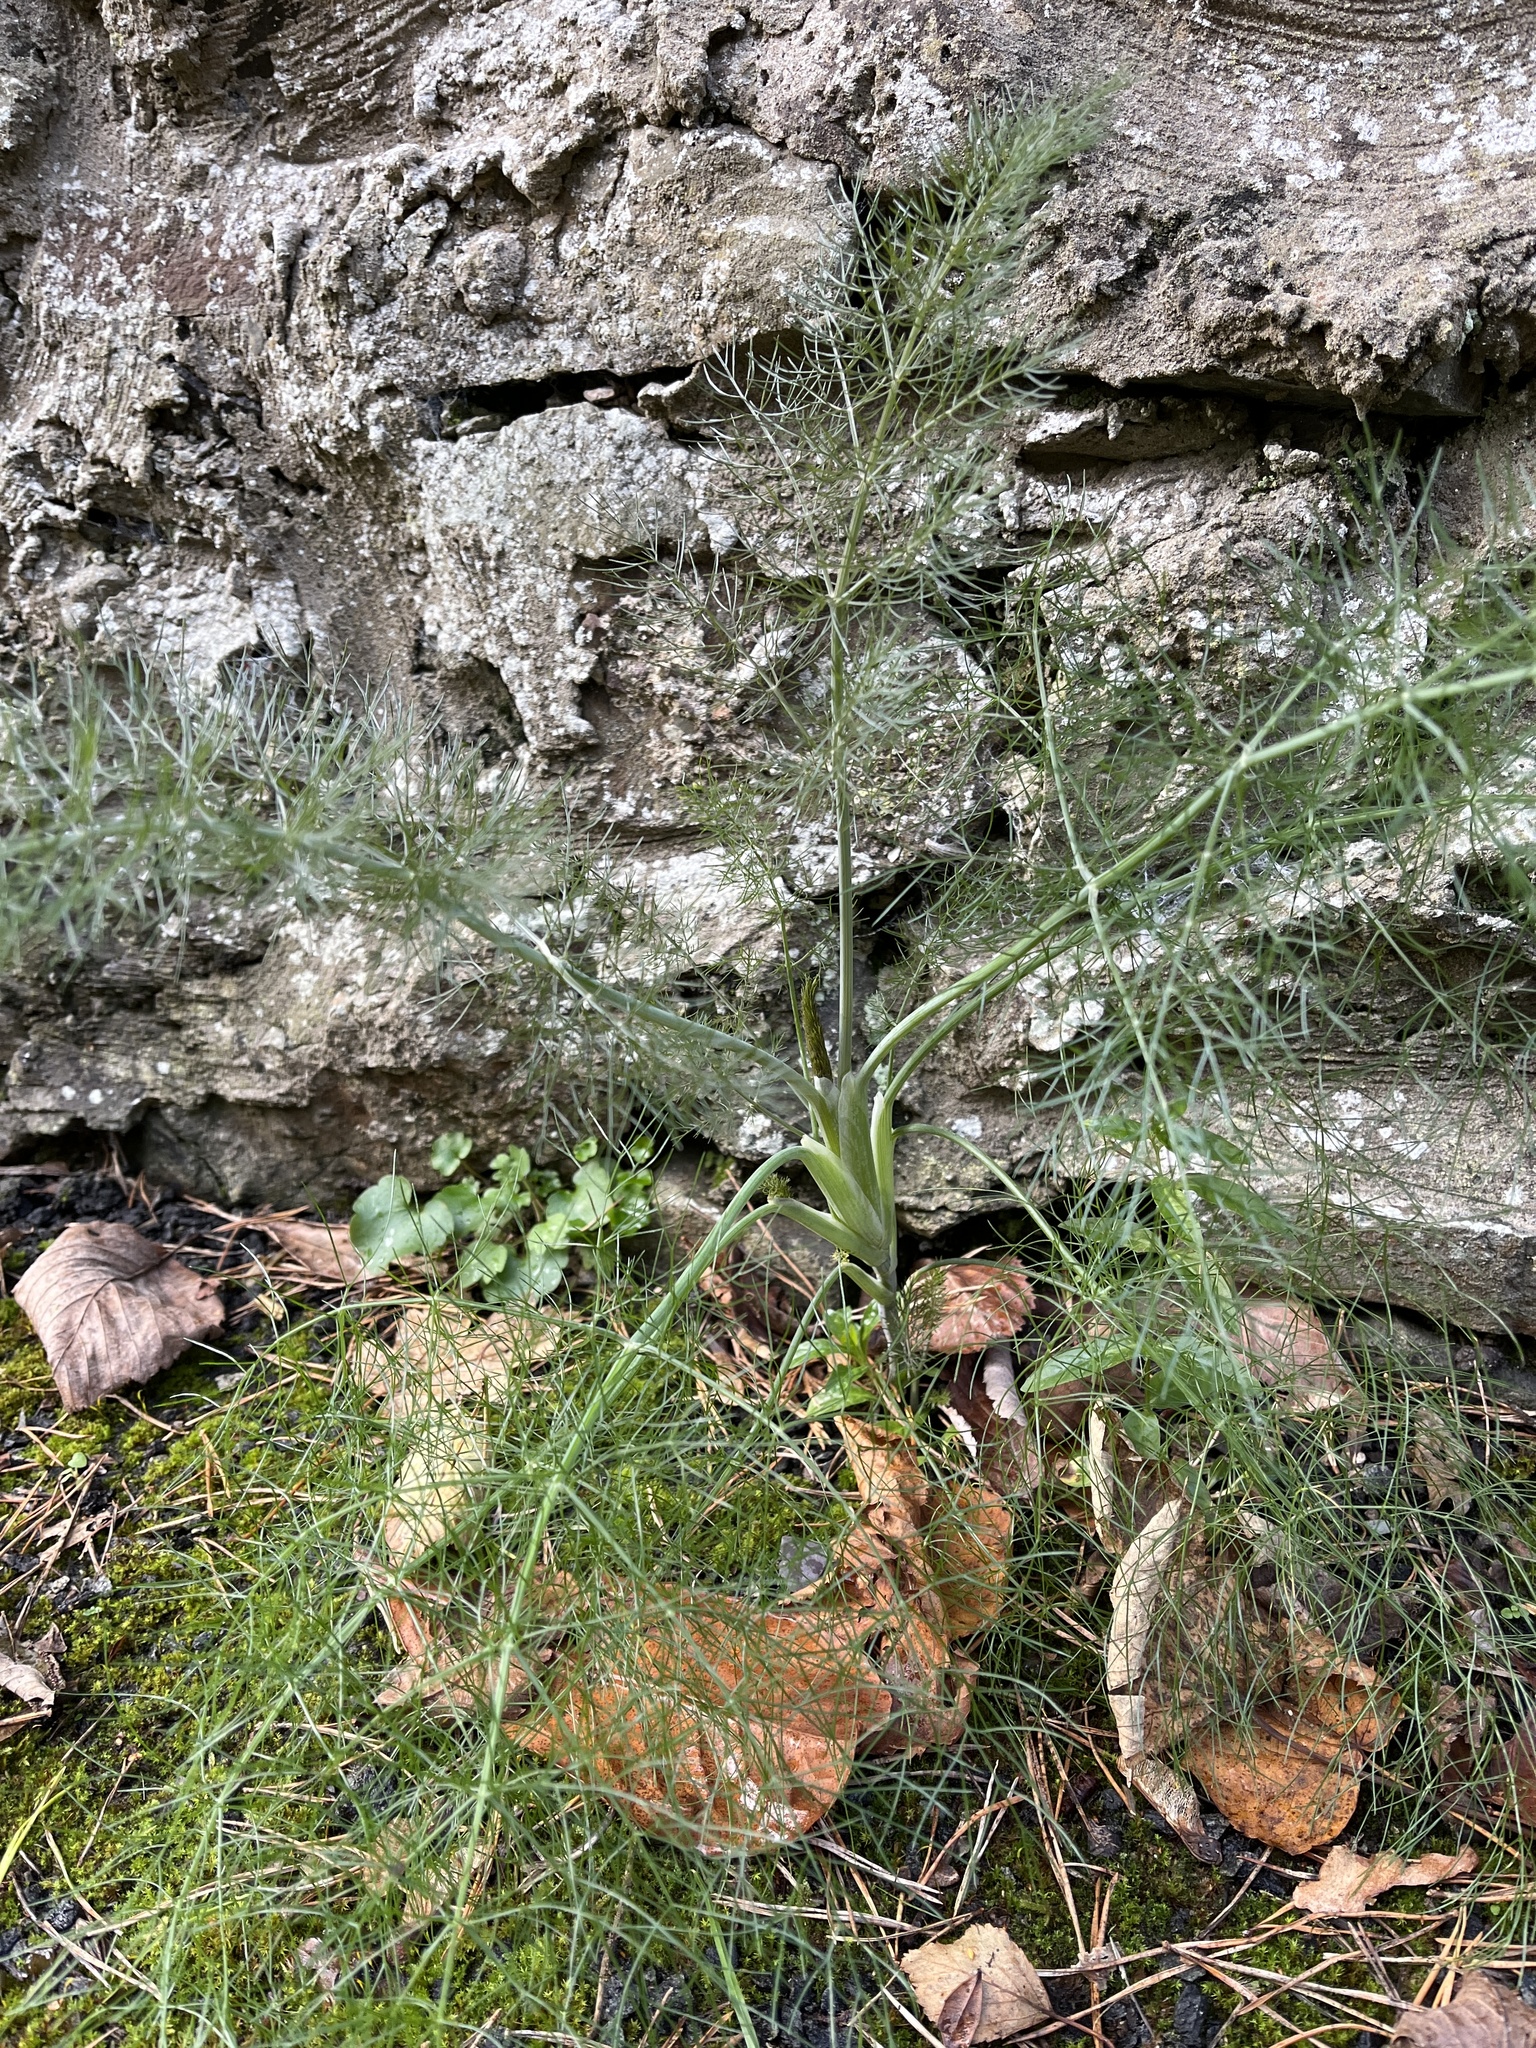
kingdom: Plantae
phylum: Tracheophyta
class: Magnoliopsida
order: Apiales
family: Apiaceae
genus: Foeniculum
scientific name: Foeniculum vulgare
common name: Fennel
